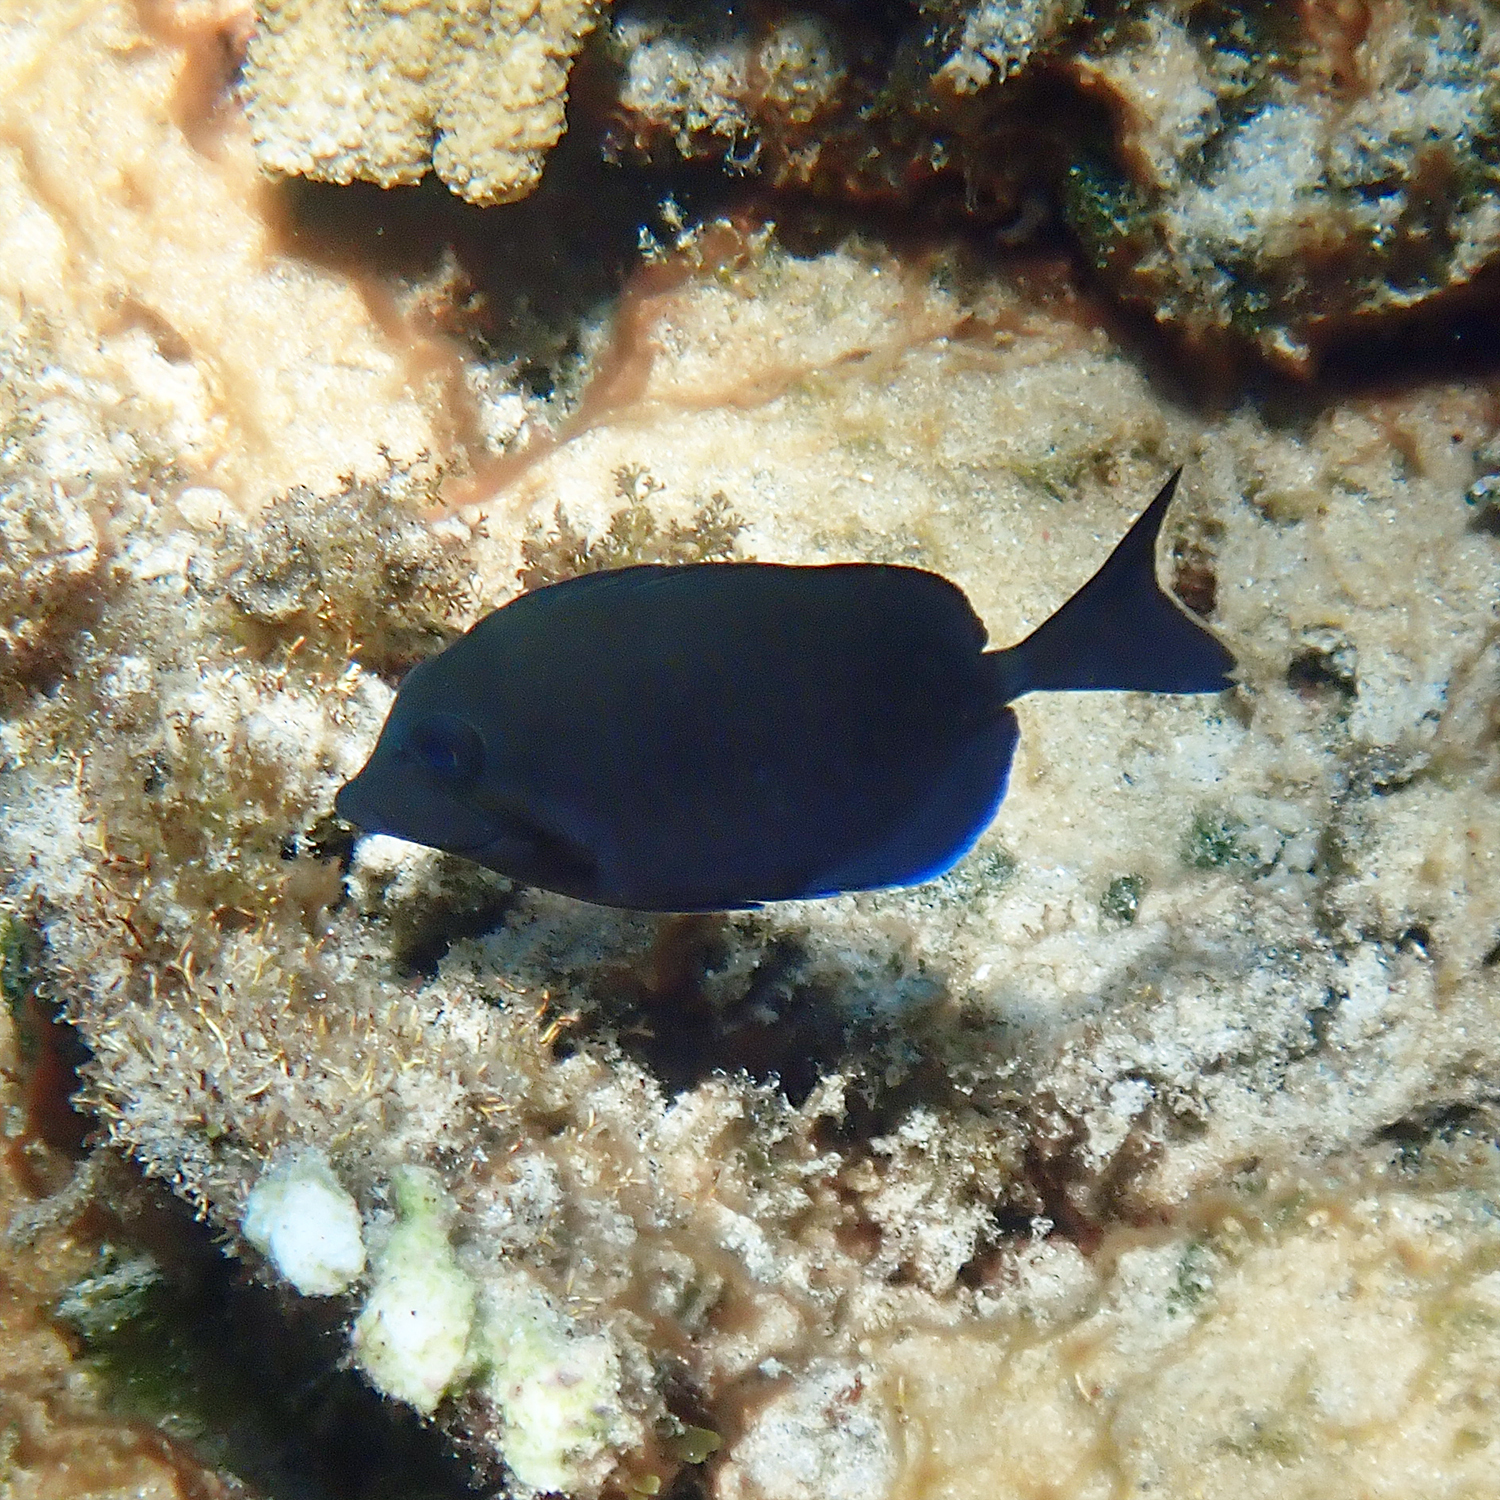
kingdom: Animalia
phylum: Chordata
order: Perciformes
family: Acanthuridae
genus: Prionurus
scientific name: Prionurus maculatus
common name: Yellowspotted sawtail
